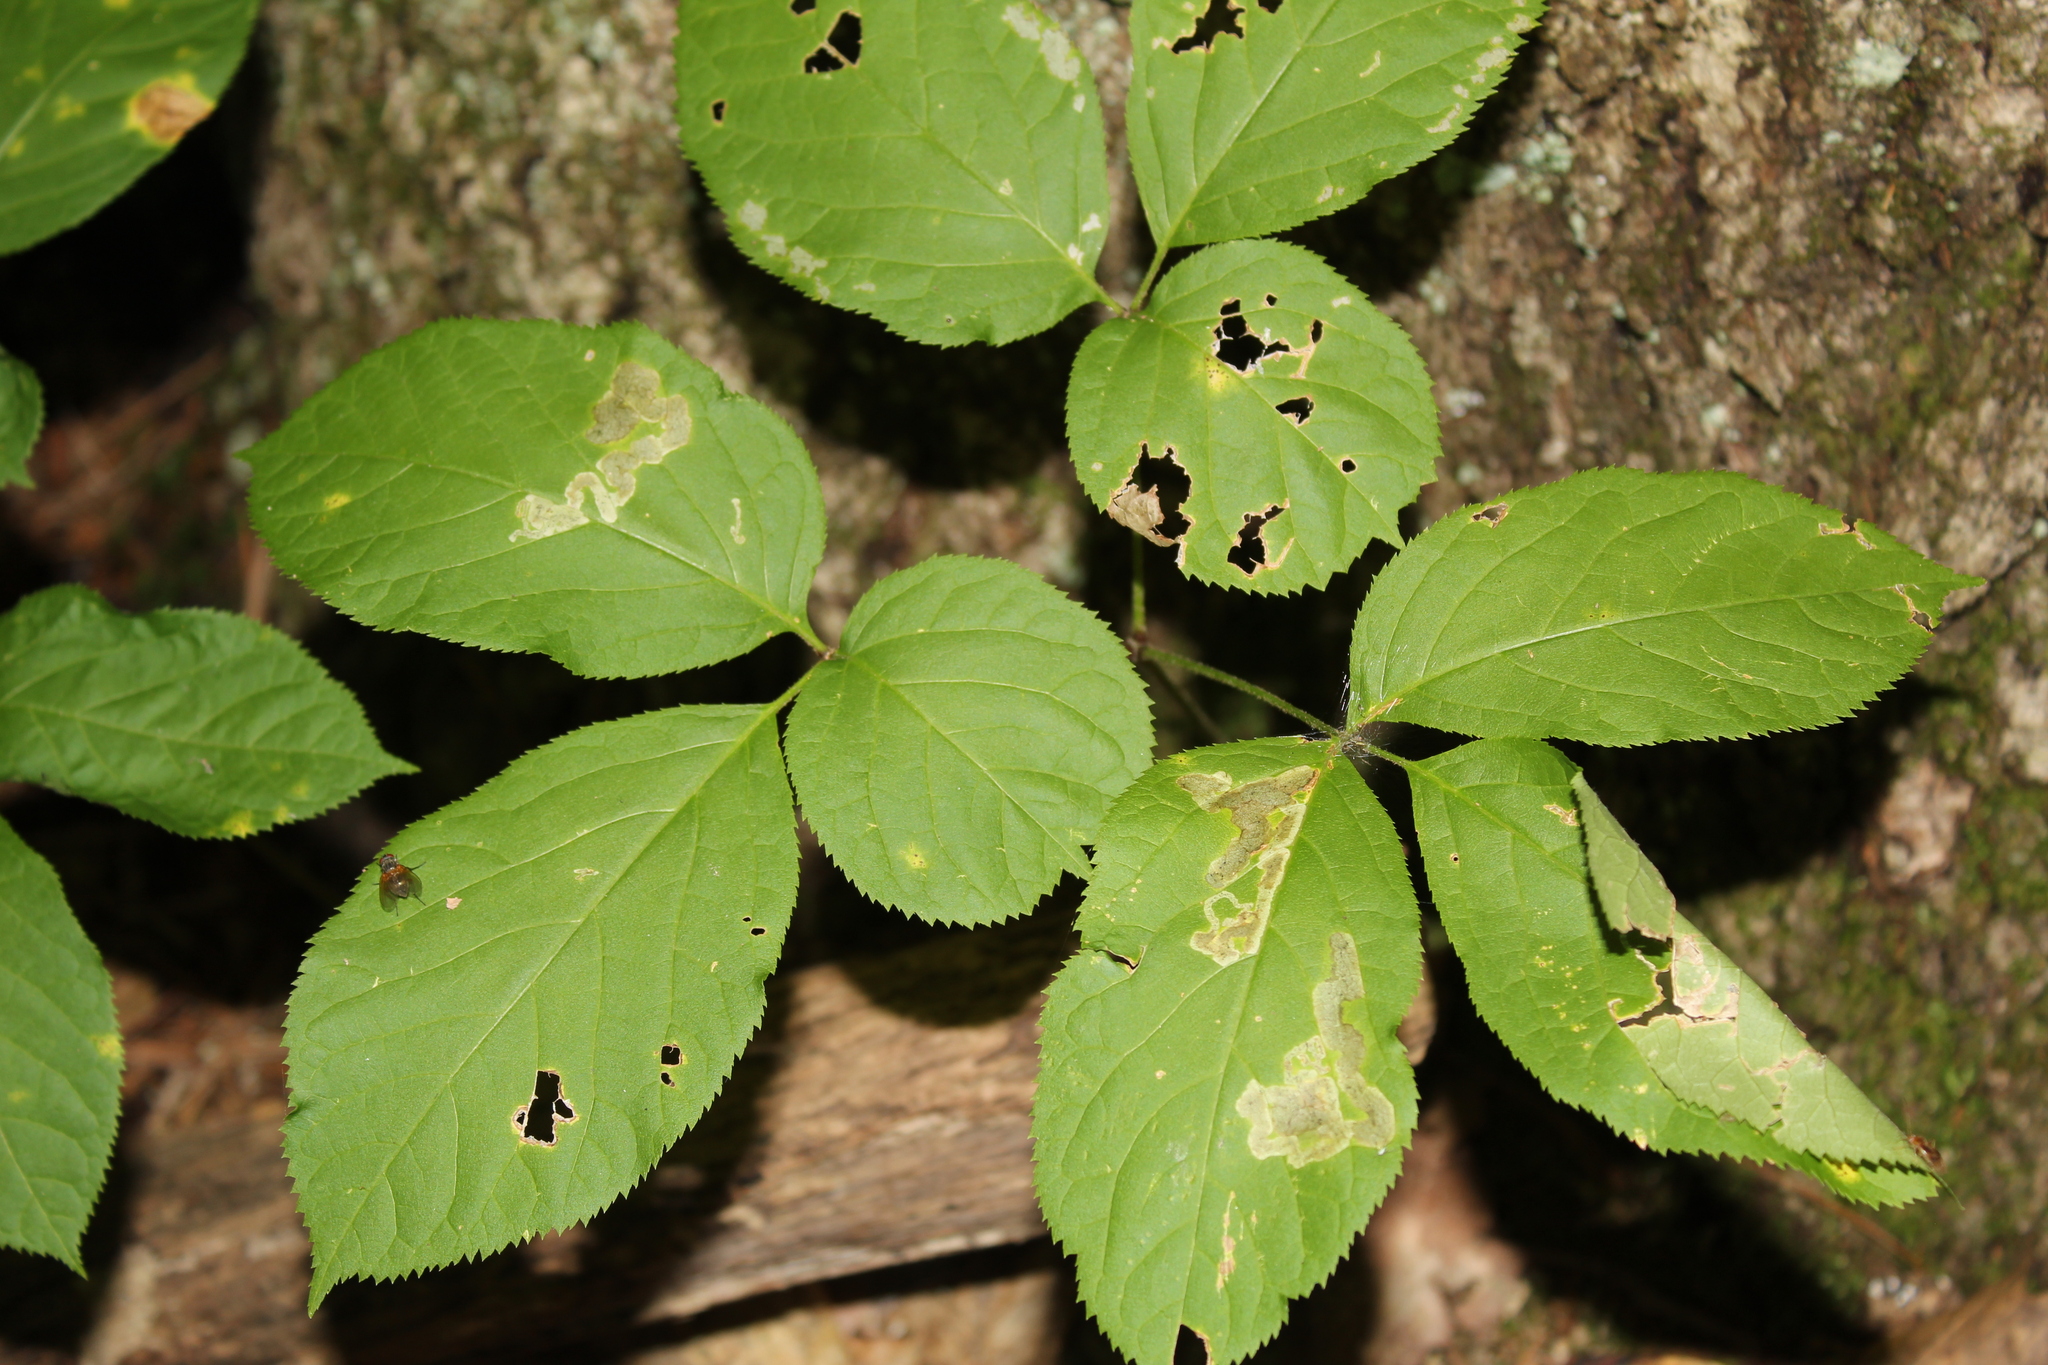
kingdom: Plantae
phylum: Tracheophyta
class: Magnoliopsida
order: Apiales
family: Araliaceae
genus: Aralia
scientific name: Aralia nudicaulis
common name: Wild sarsaparilla
